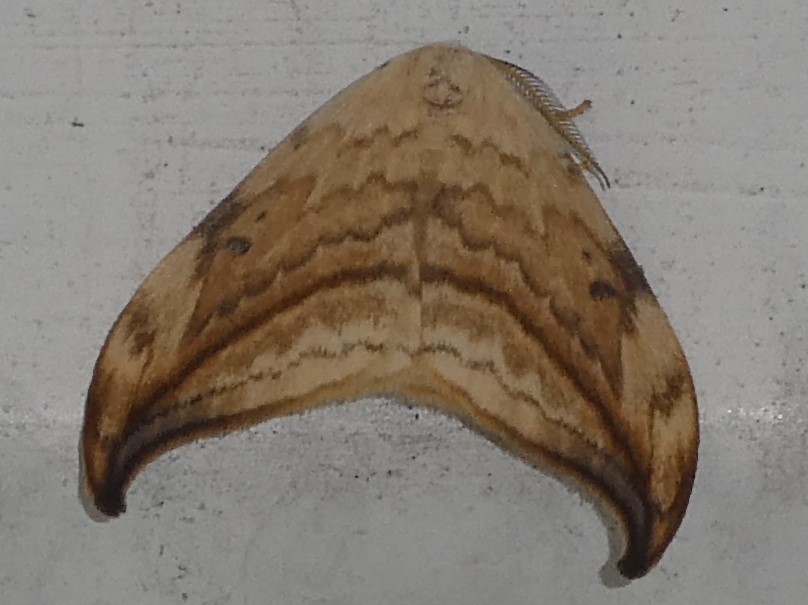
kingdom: Animalia
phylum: Arthropoda
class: Insecta
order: Lepidoptera
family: Drepanidae
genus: Drepana
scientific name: Drepana arcuata
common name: Arched hooktip moth
